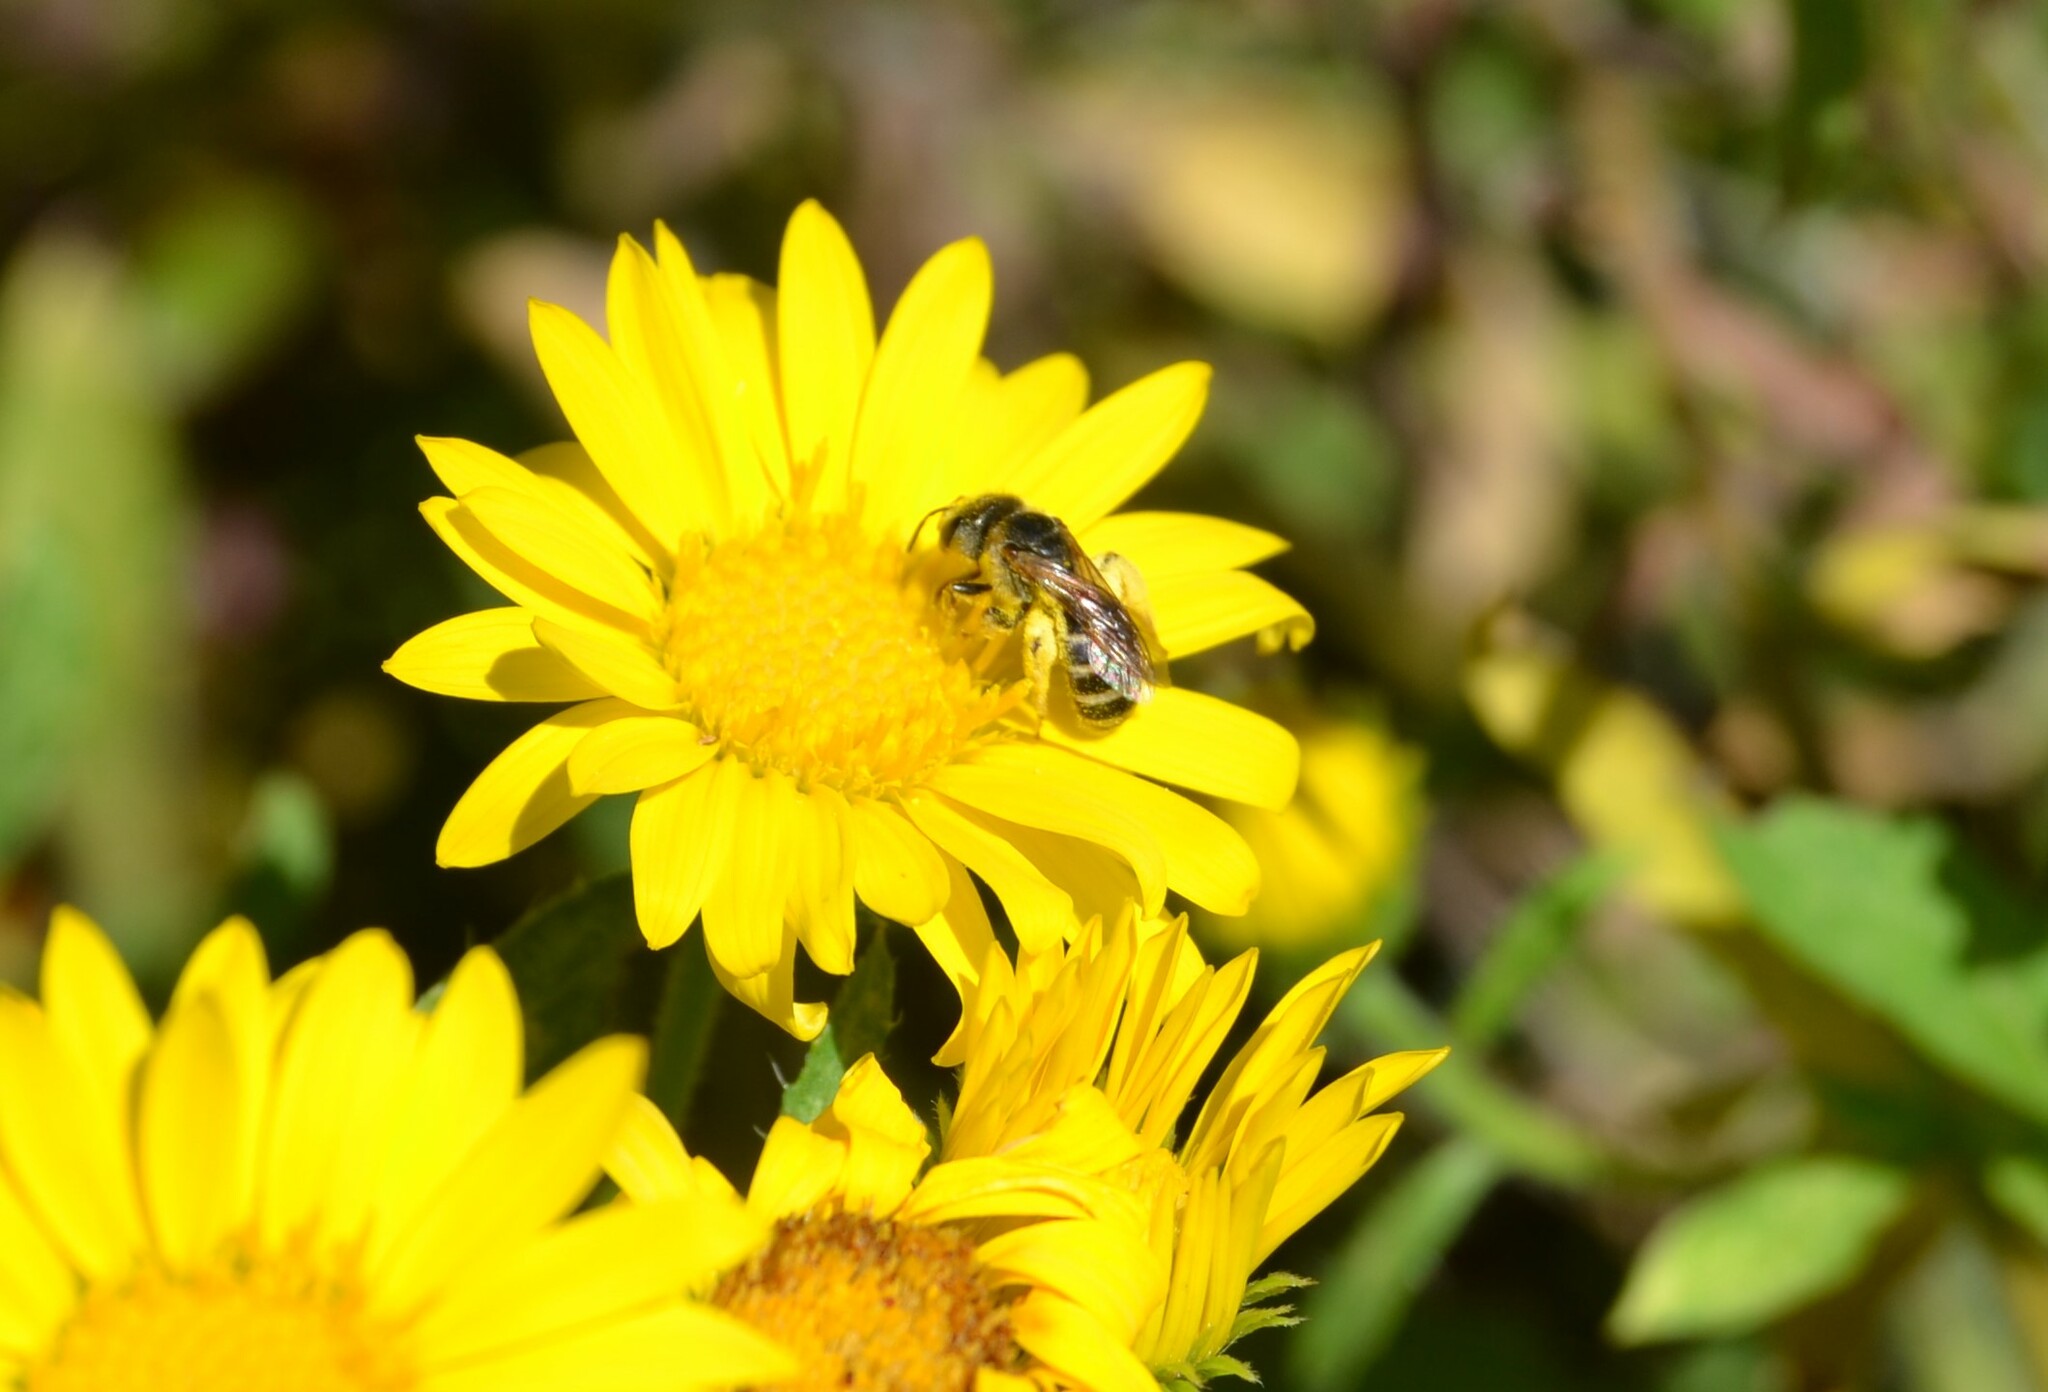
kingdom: Animalia
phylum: Arthropoda
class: Insecta
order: Hymenoptera
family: Halictidae
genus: Halictus
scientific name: Halictus ligatus
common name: Ligated furrow bee
